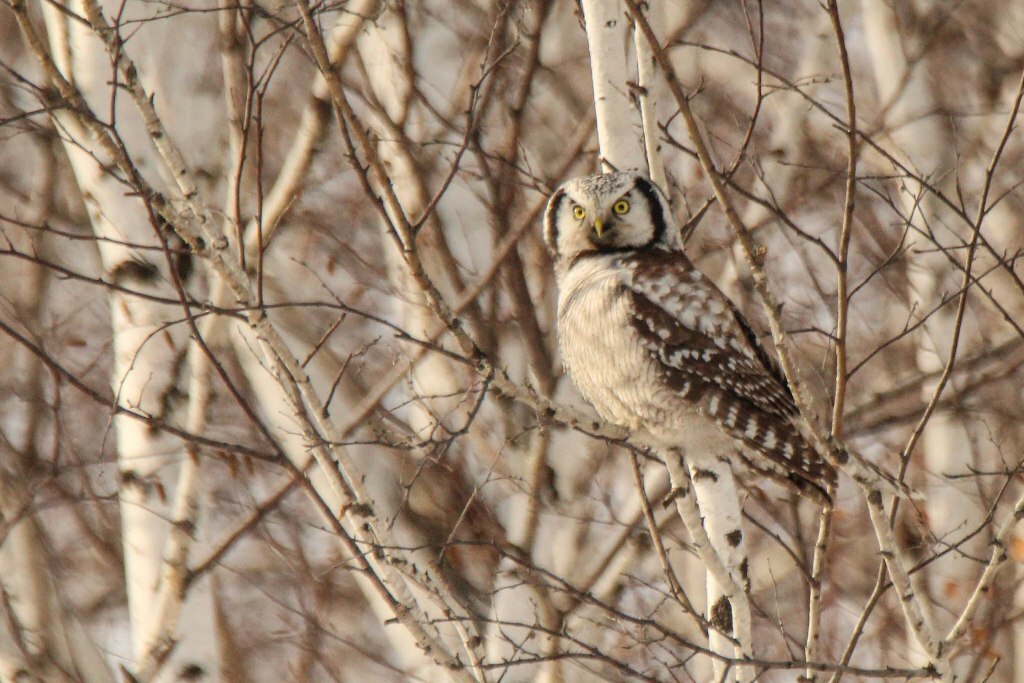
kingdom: Animalia
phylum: Chordata
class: Aves
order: Strigiformes
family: Strigidae
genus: Surnia
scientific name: Surnia ulula
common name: Northern hawk-owl
